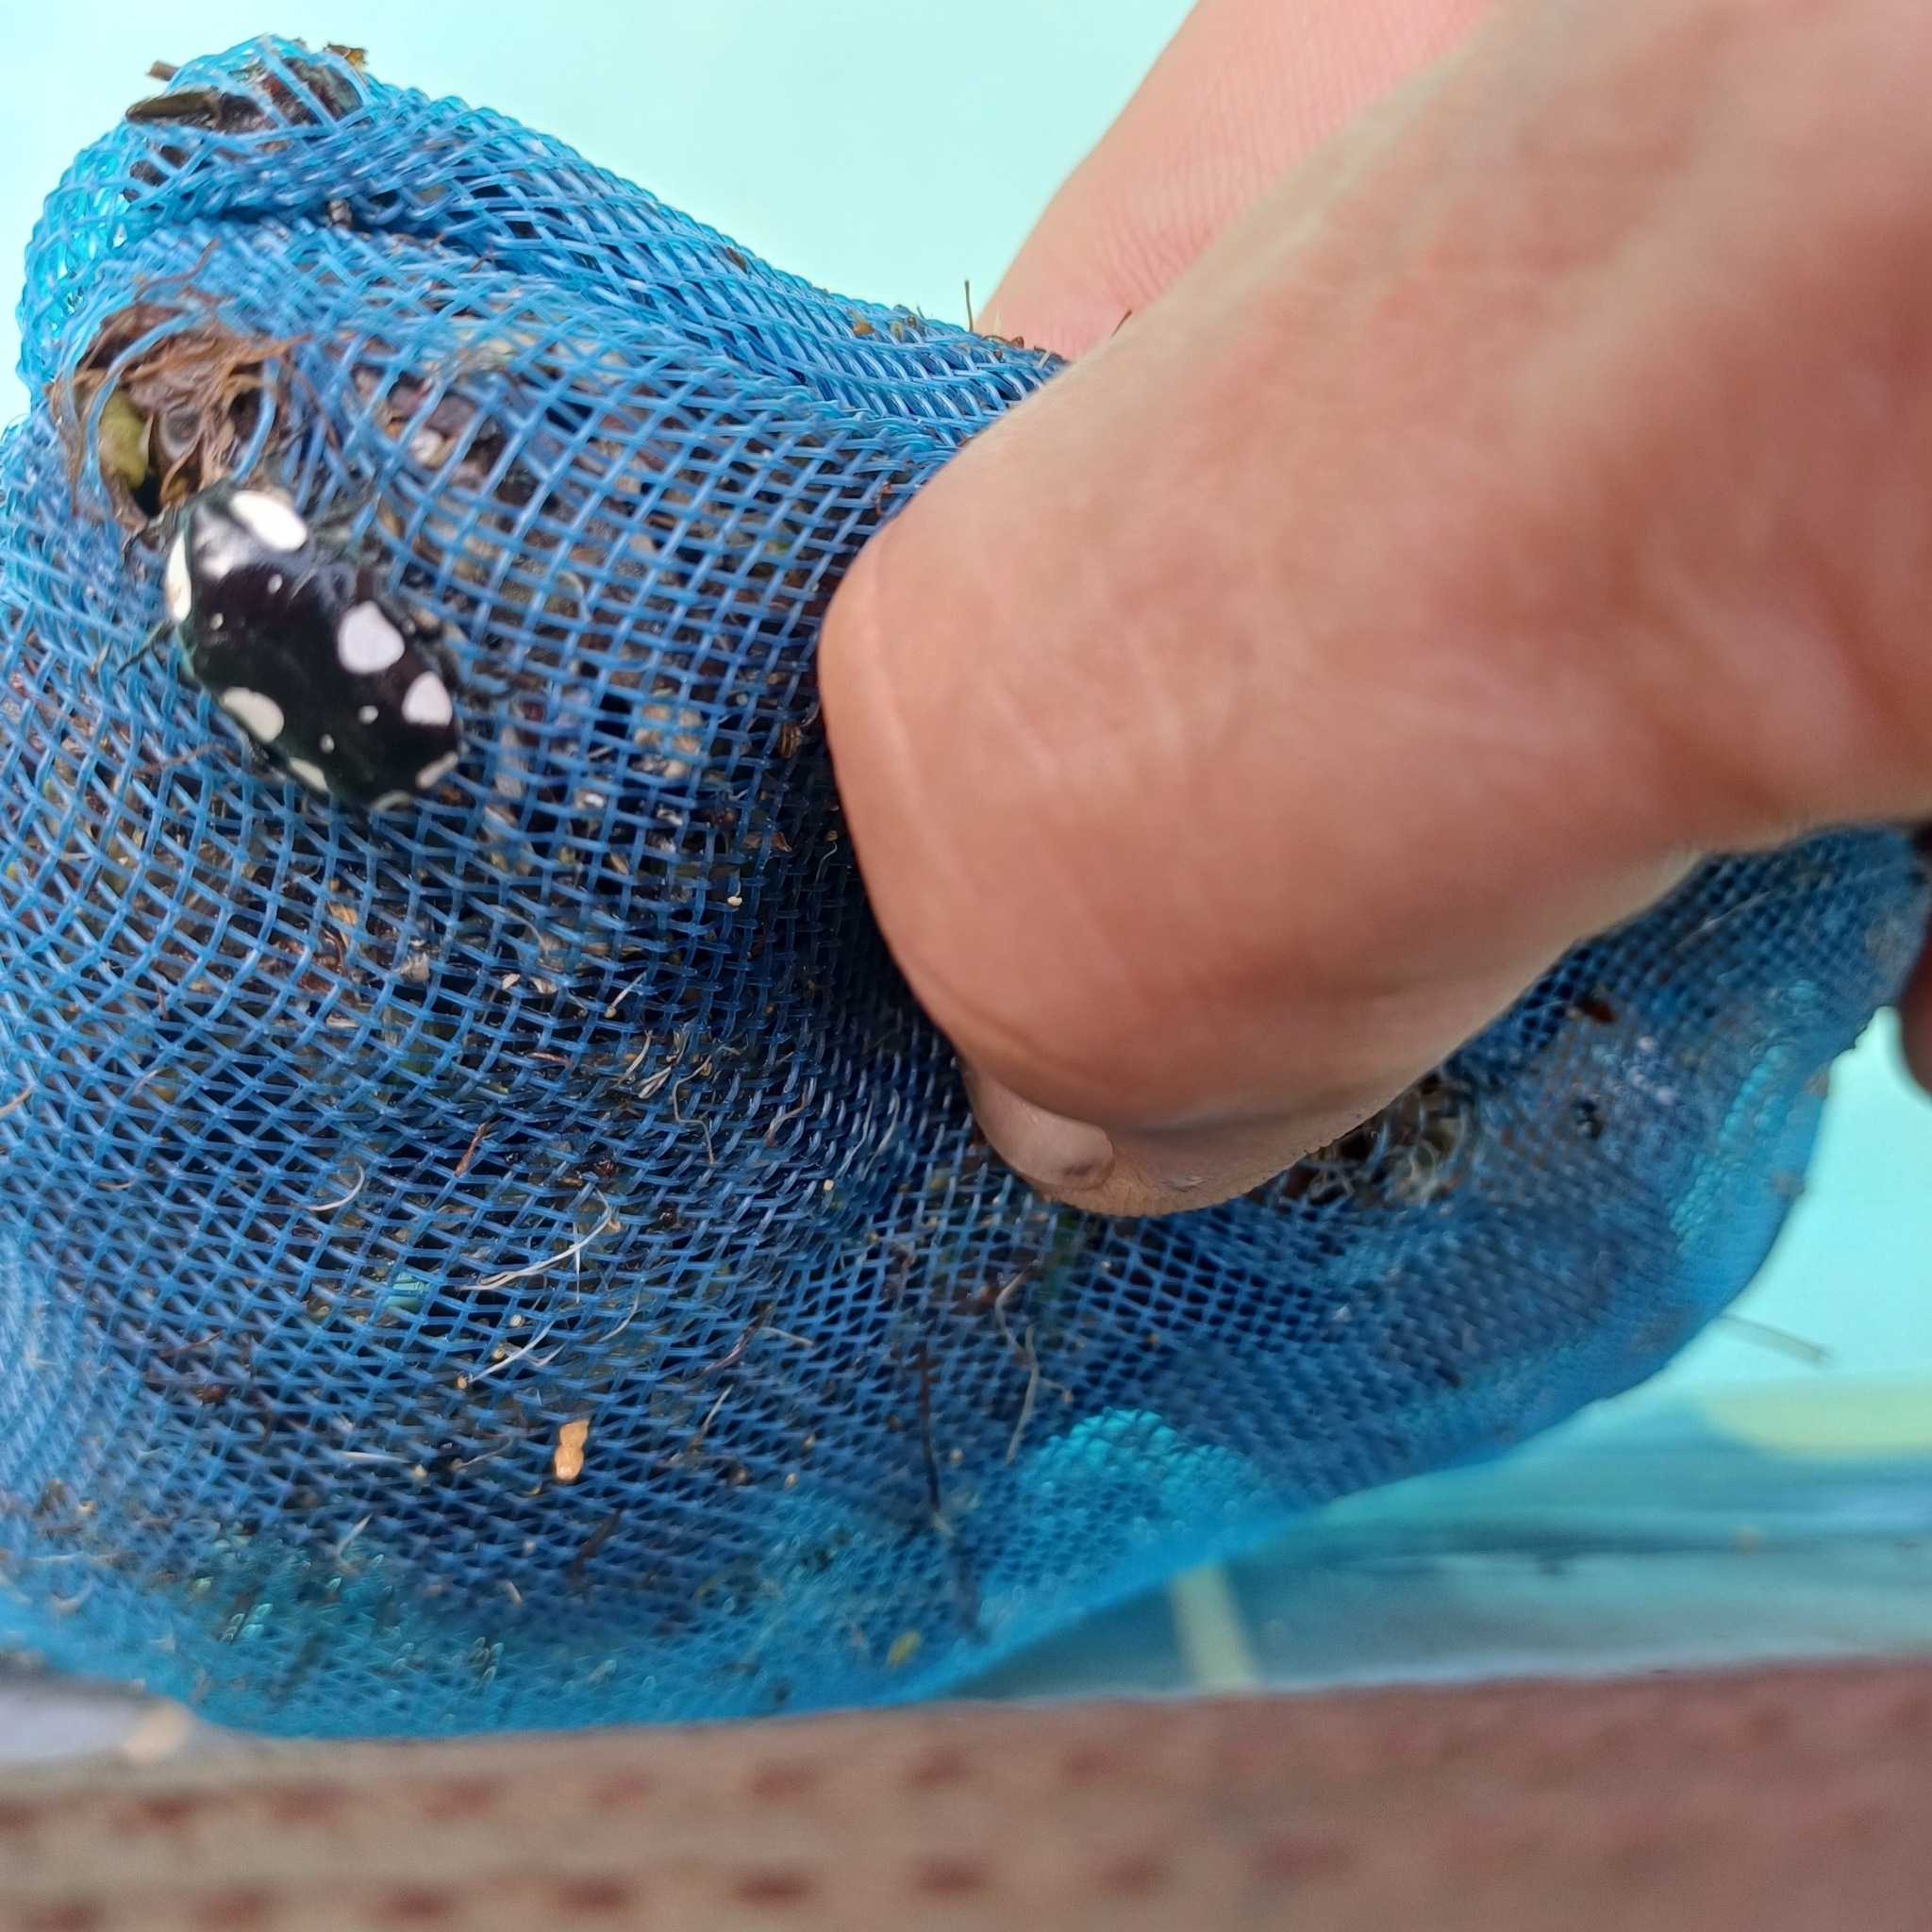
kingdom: Animalia
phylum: Arthropoda
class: Insecta
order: Coleoptera
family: Scarabaeidae
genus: Mausoleopsis
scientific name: Mausoleopsis amabilis
